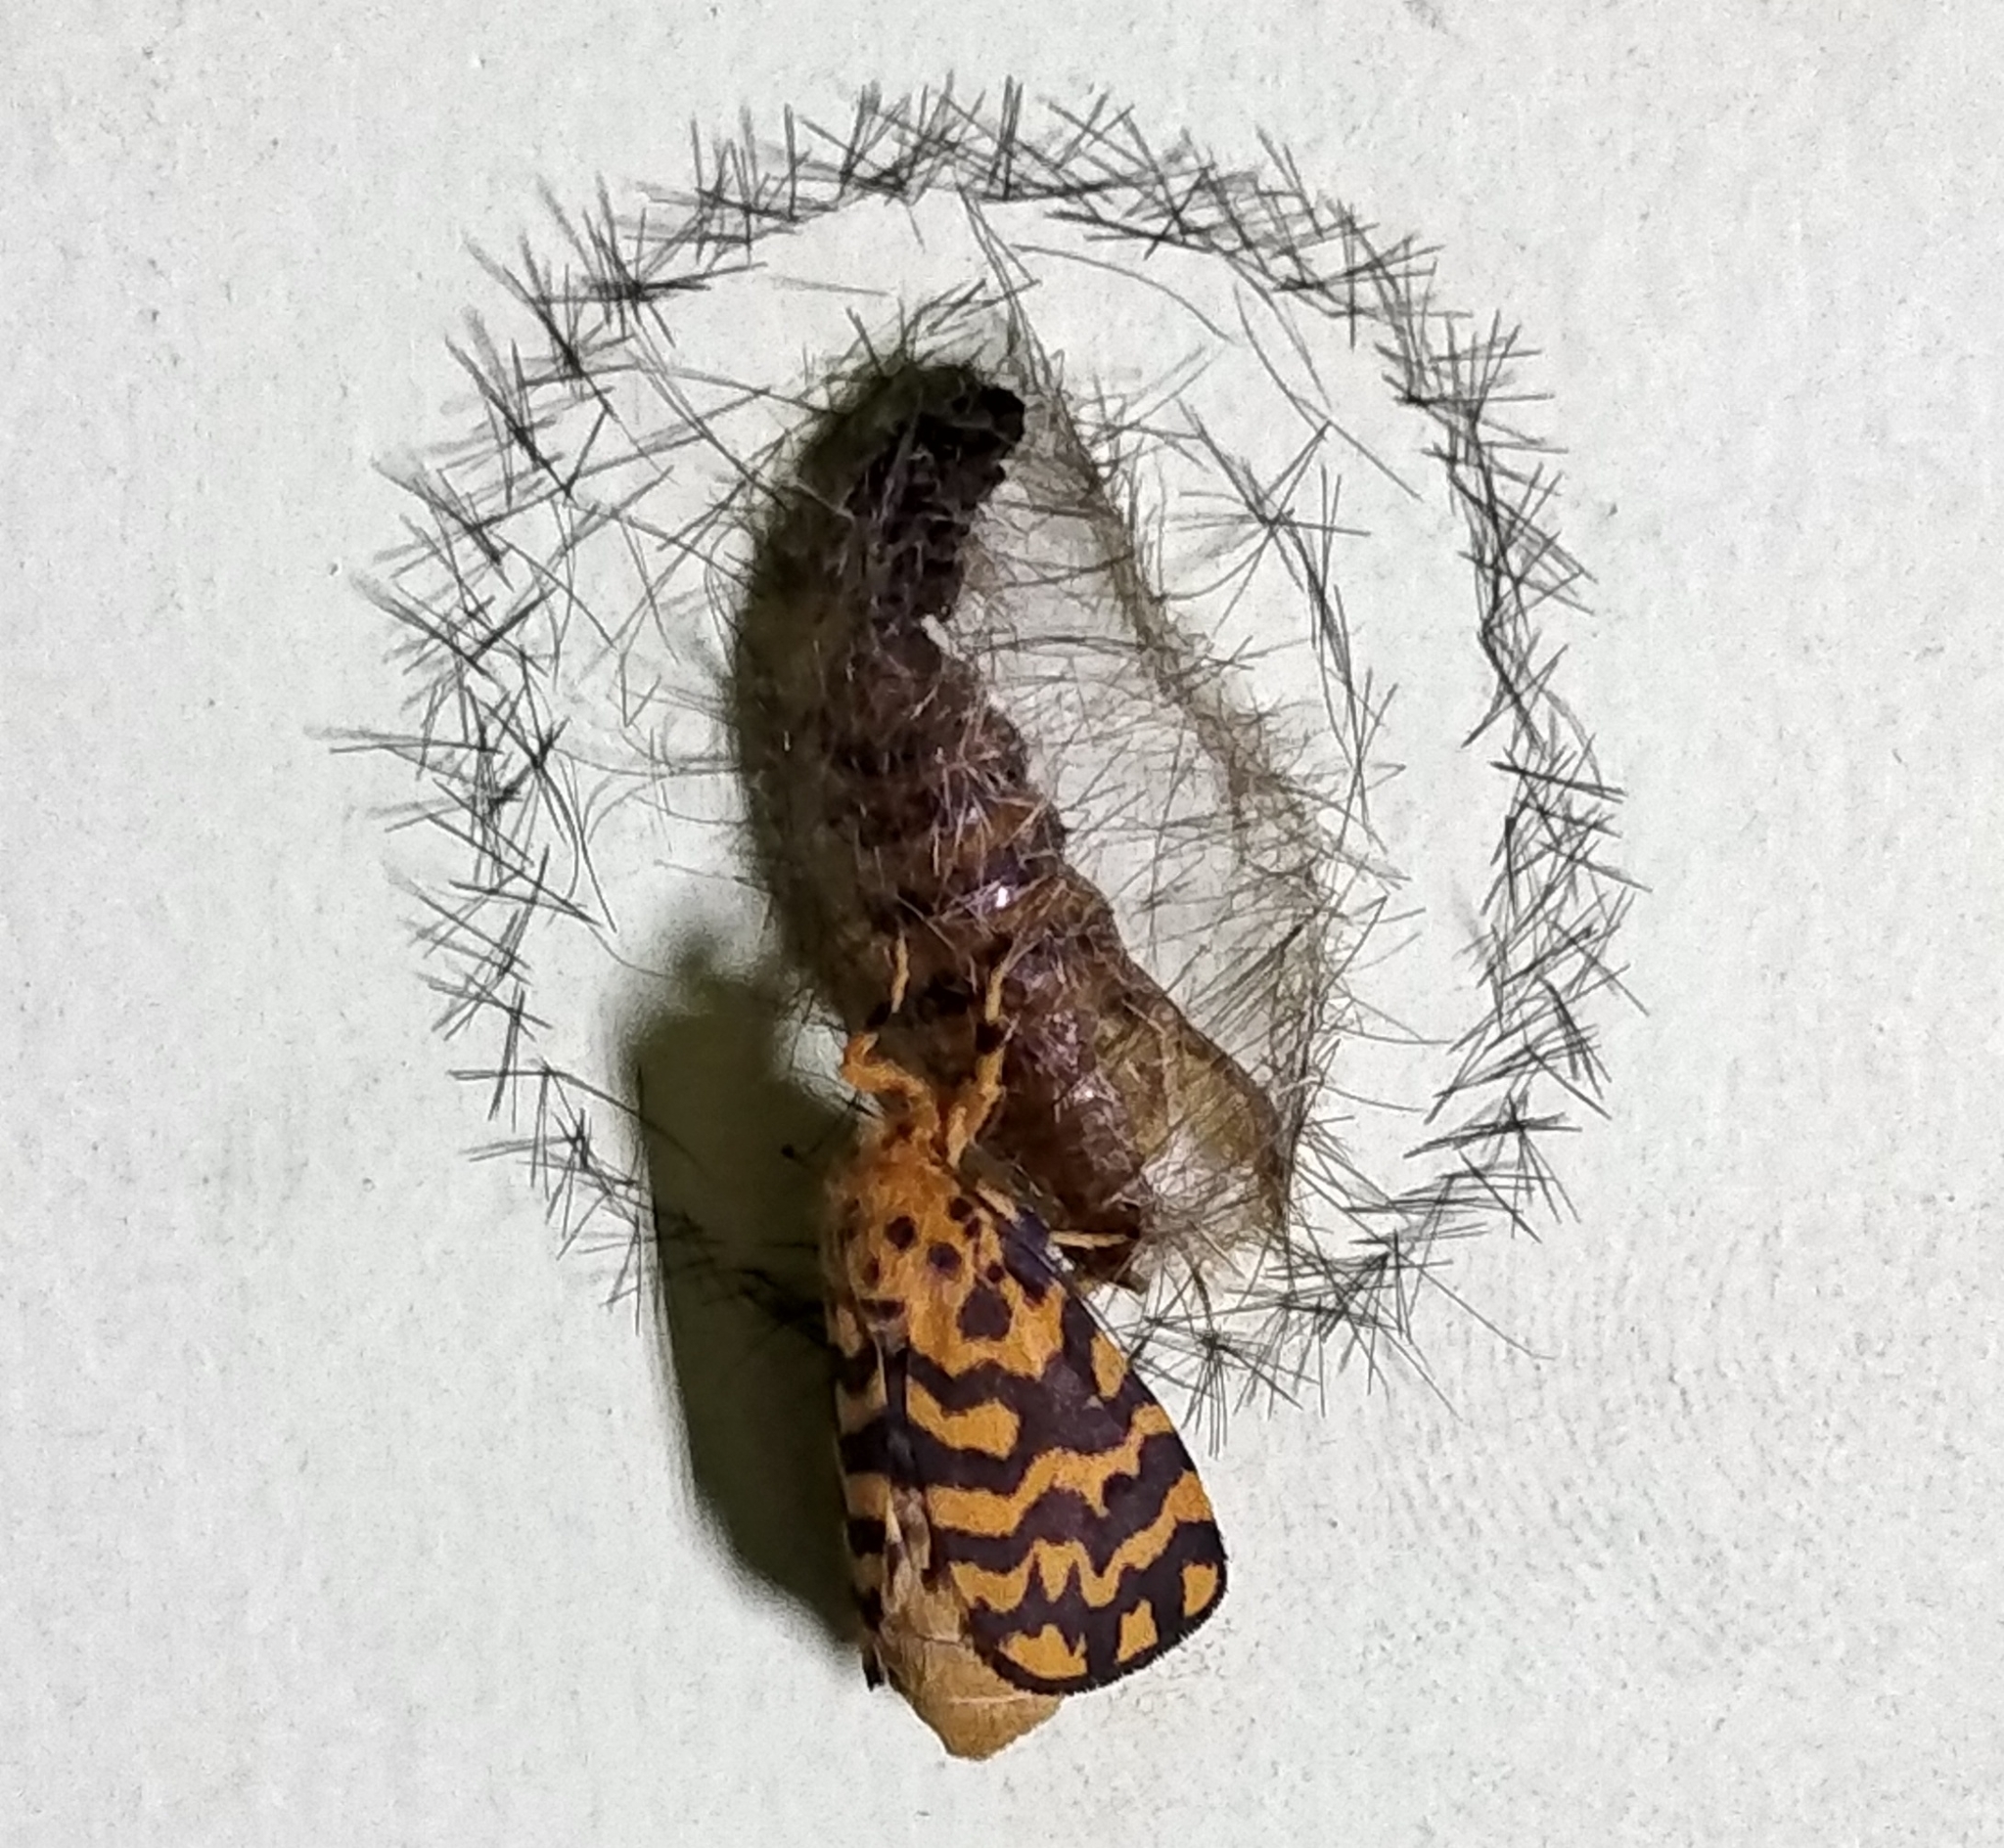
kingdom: Animalia
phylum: Arthropoda
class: Insecta
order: Lepidoptera
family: Erebidae
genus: Nepita
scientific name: Nepita conferta
